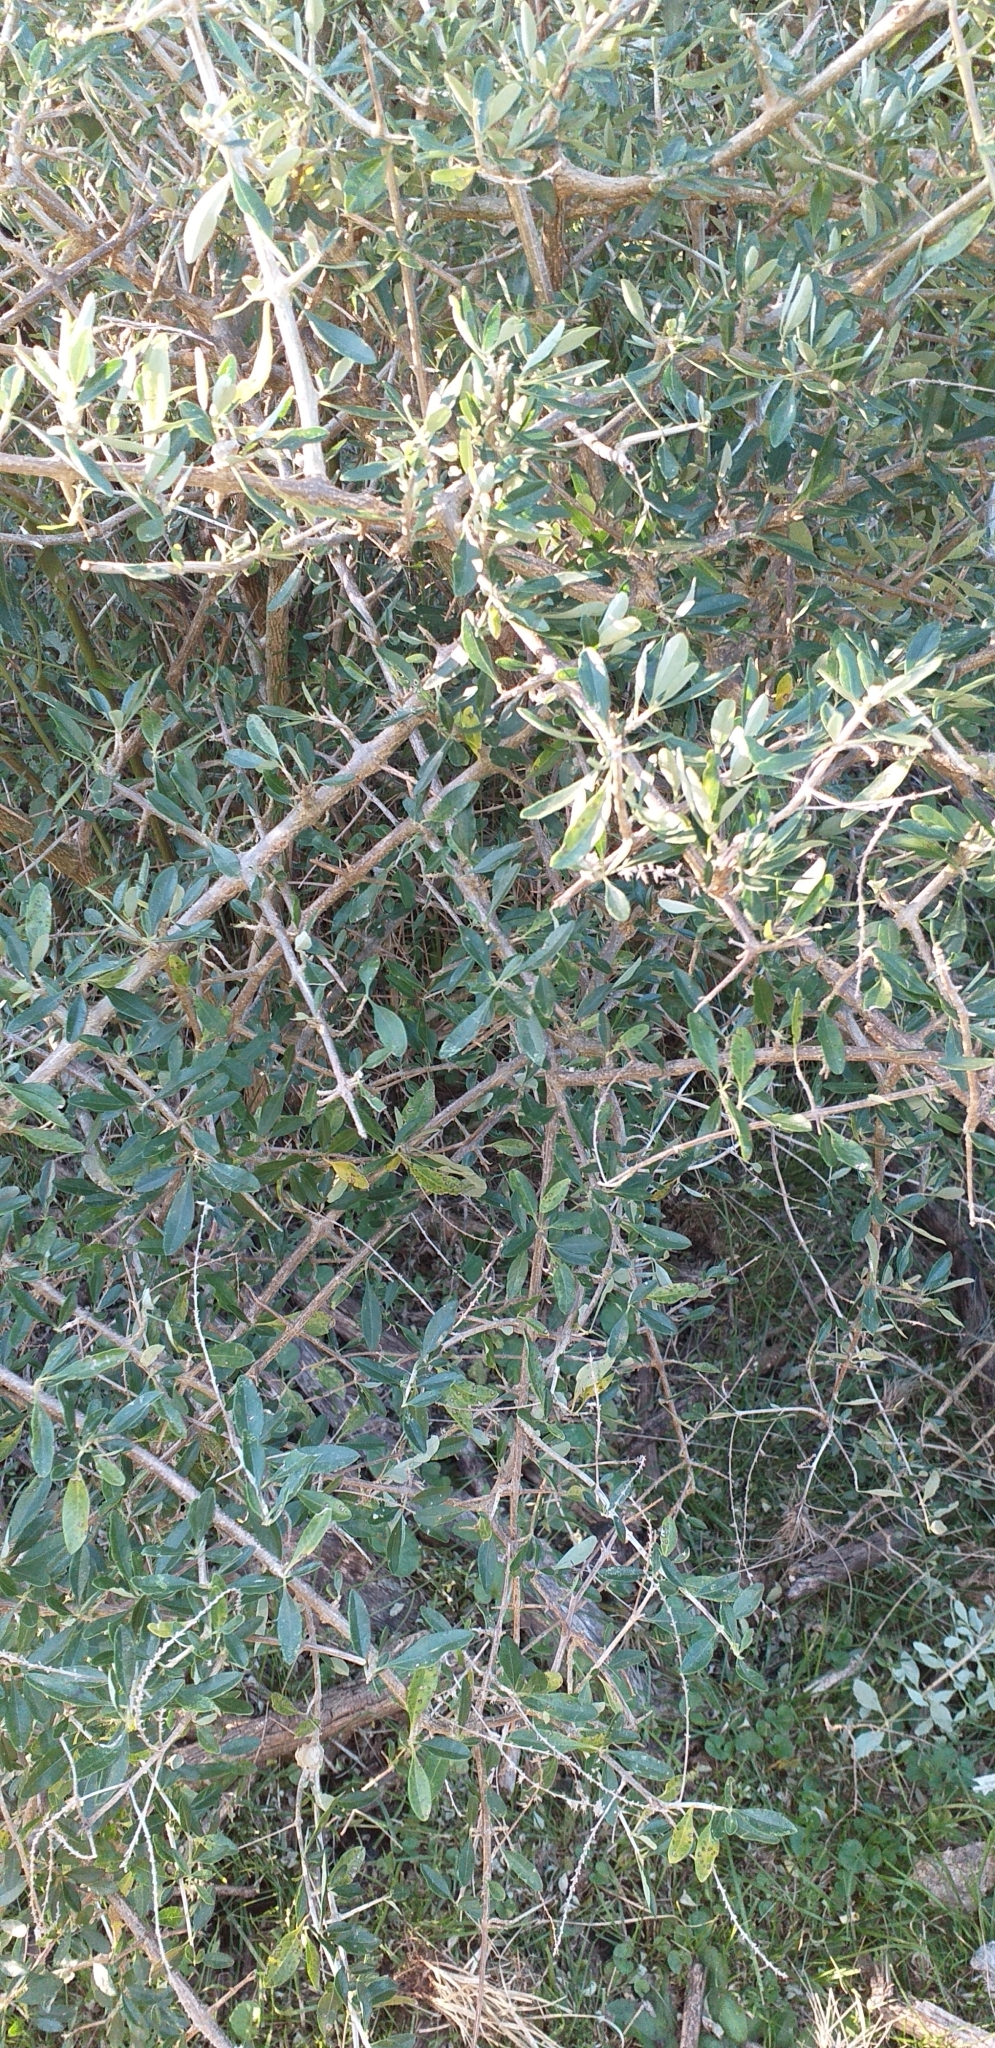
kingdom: Plantae
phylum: Tracheophyta
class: Magnoliopsida
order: Lamiales
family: Verbenaceae
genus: Aloysia
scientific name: Aloysia gratissima
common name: Common bee-brush
